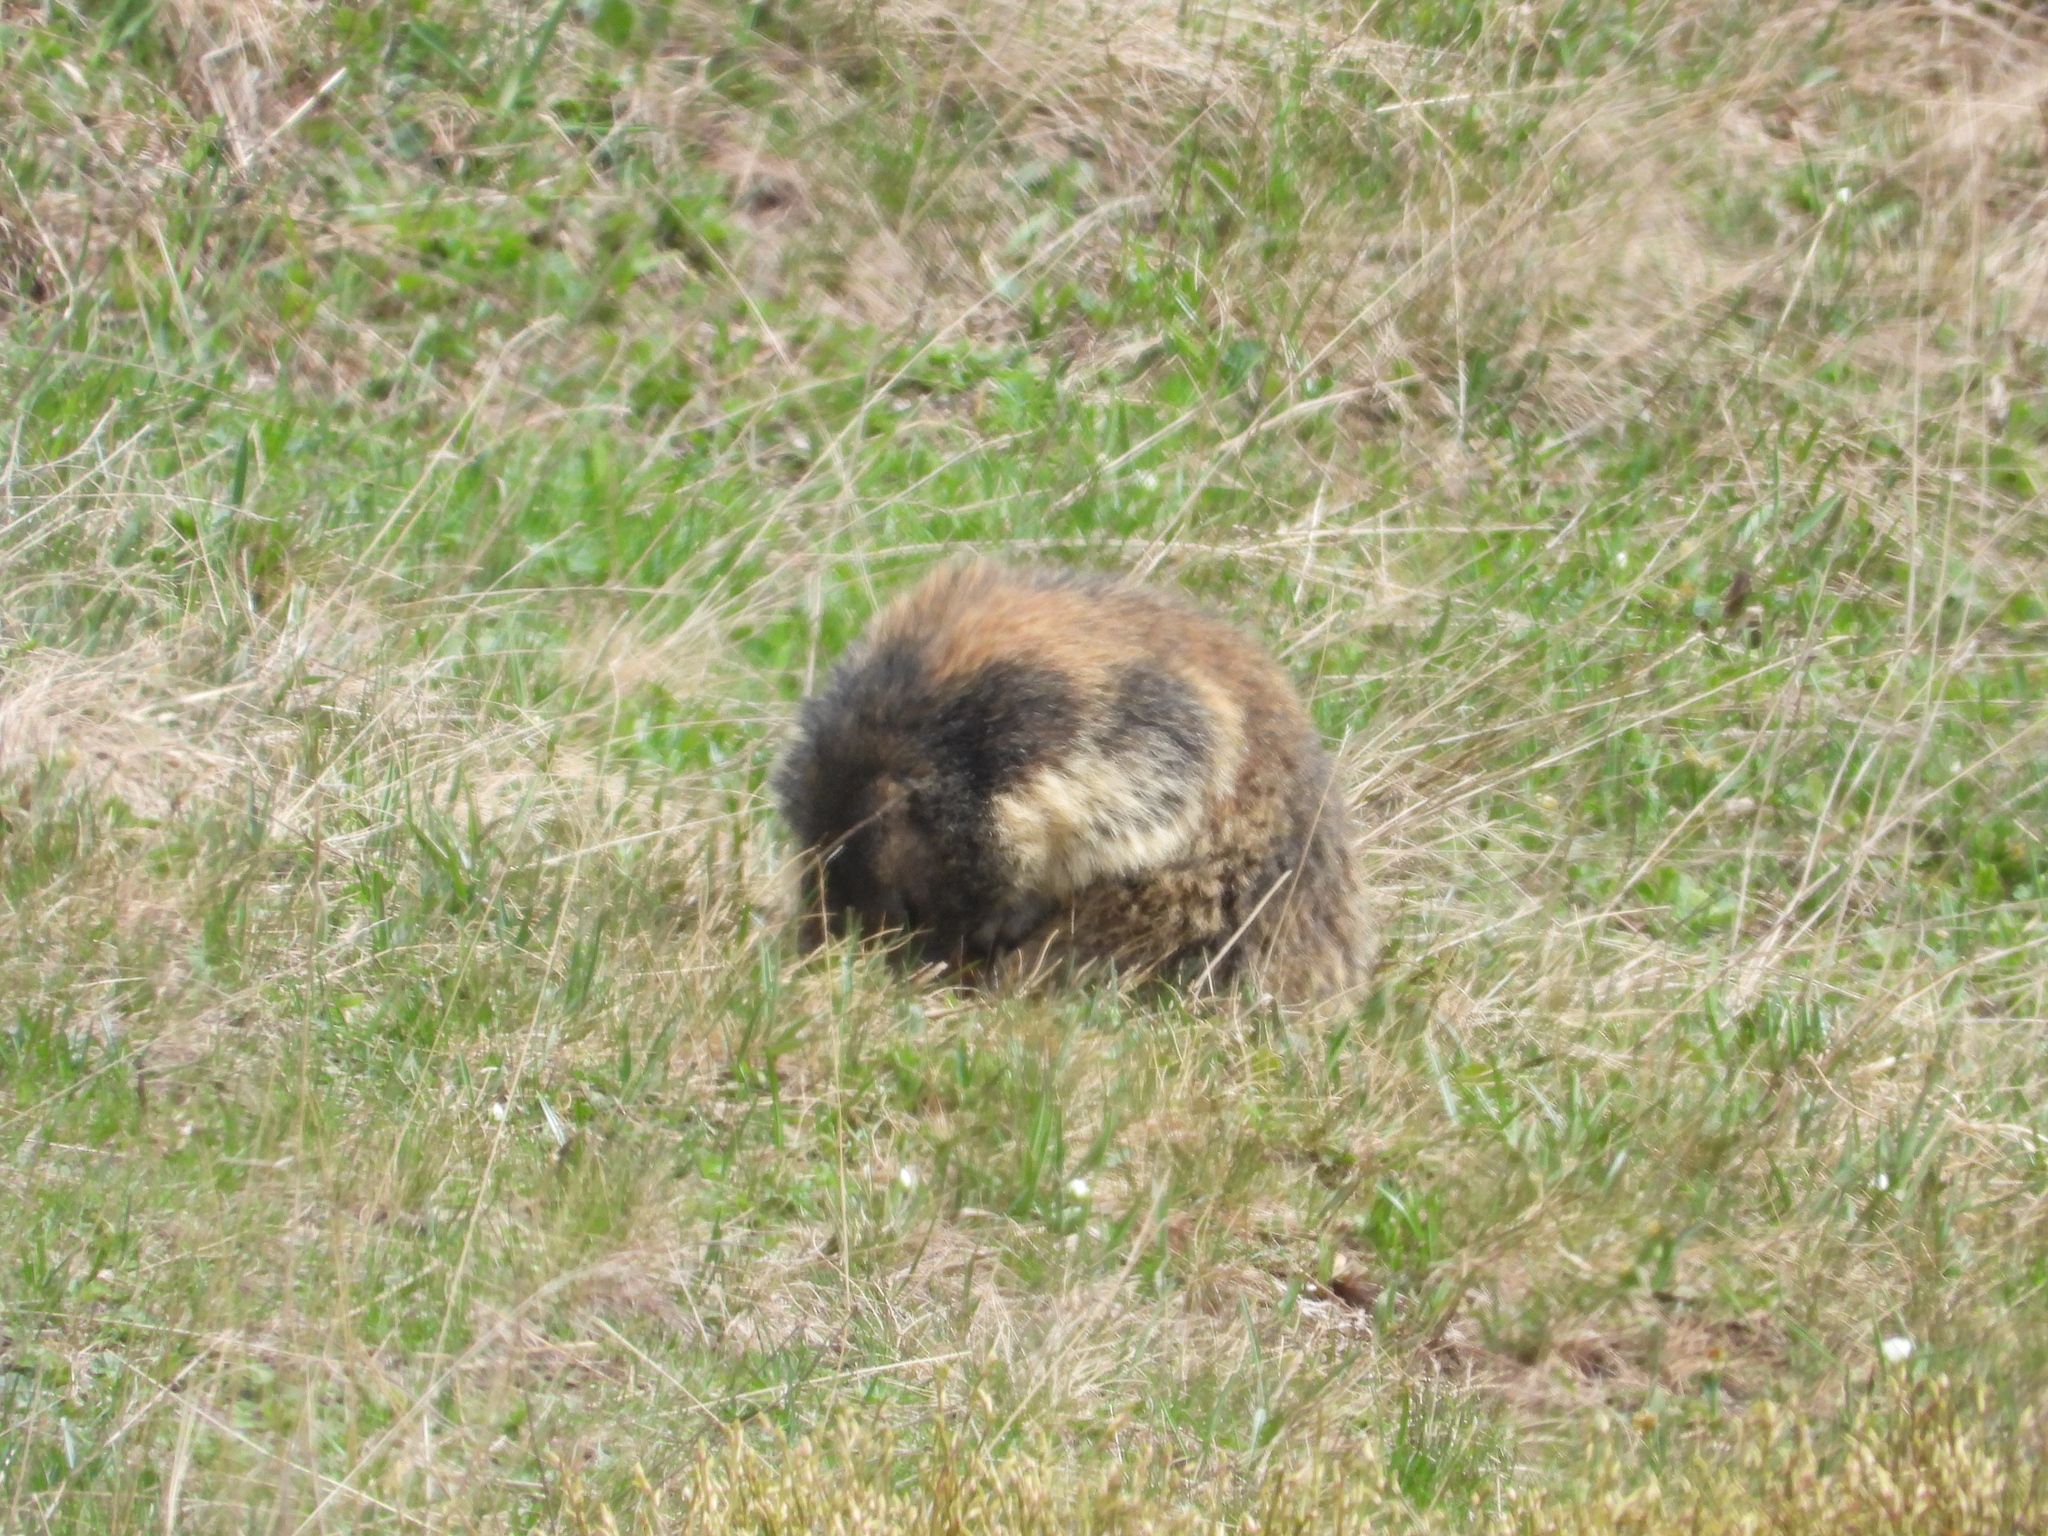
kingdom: Animalia
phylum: Chordata
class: Mammalia
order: Rodentia
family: Sciuridae
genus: Marmota
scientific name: Marmota marmota
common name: Alpine marmot
